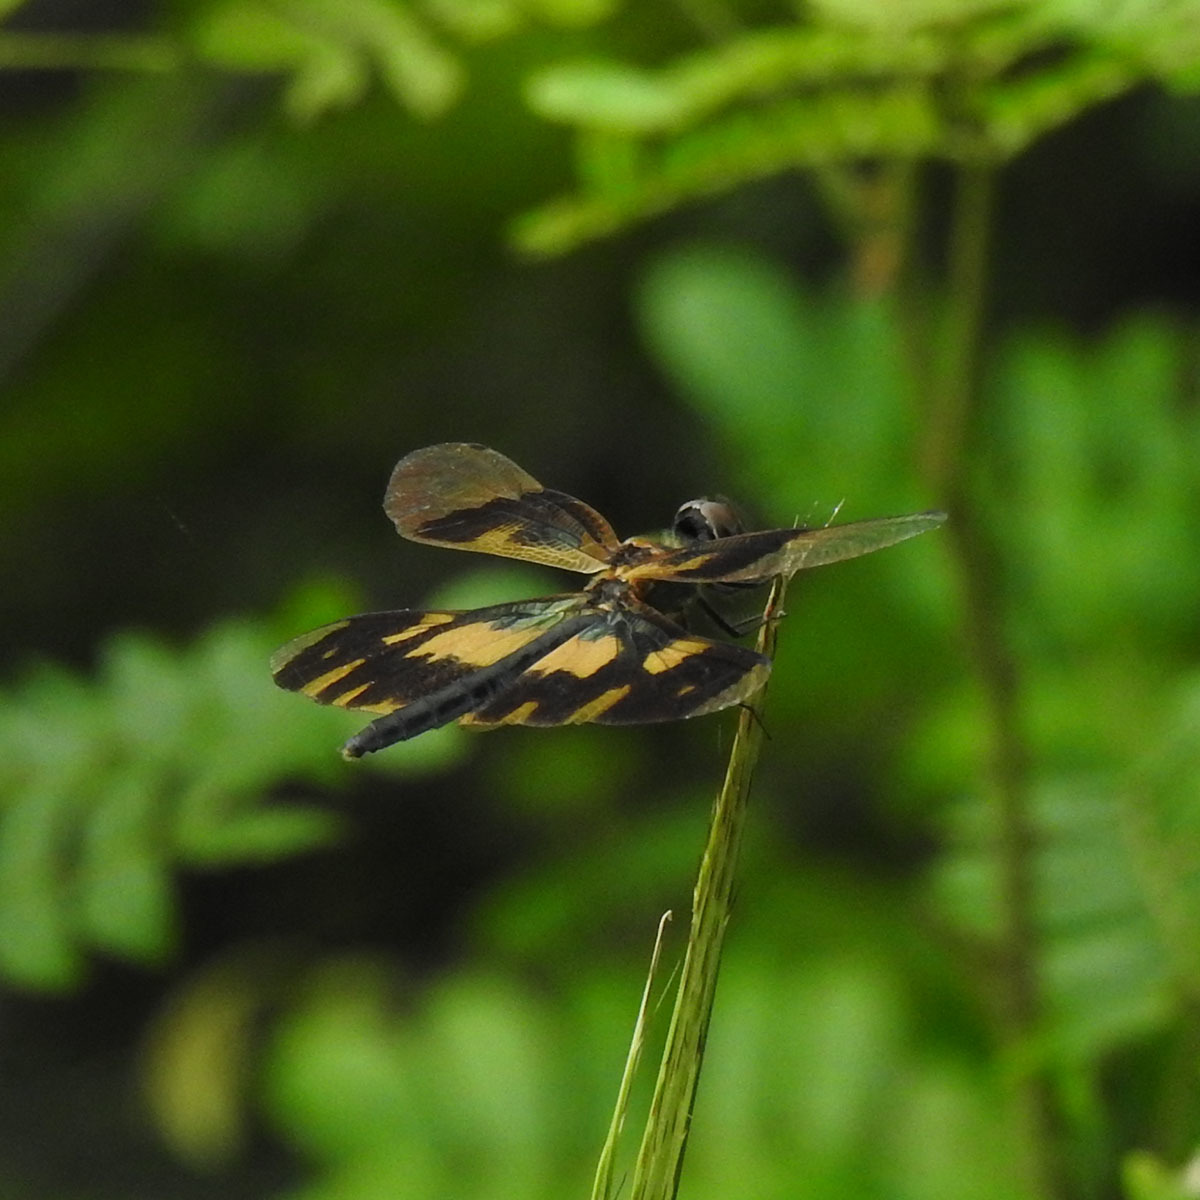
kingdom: Animalia
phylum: Arthropoda
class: Insecta
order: Odonata
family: Libellulidae
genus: Rhyothemis
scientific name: Rhyothemis variegata
